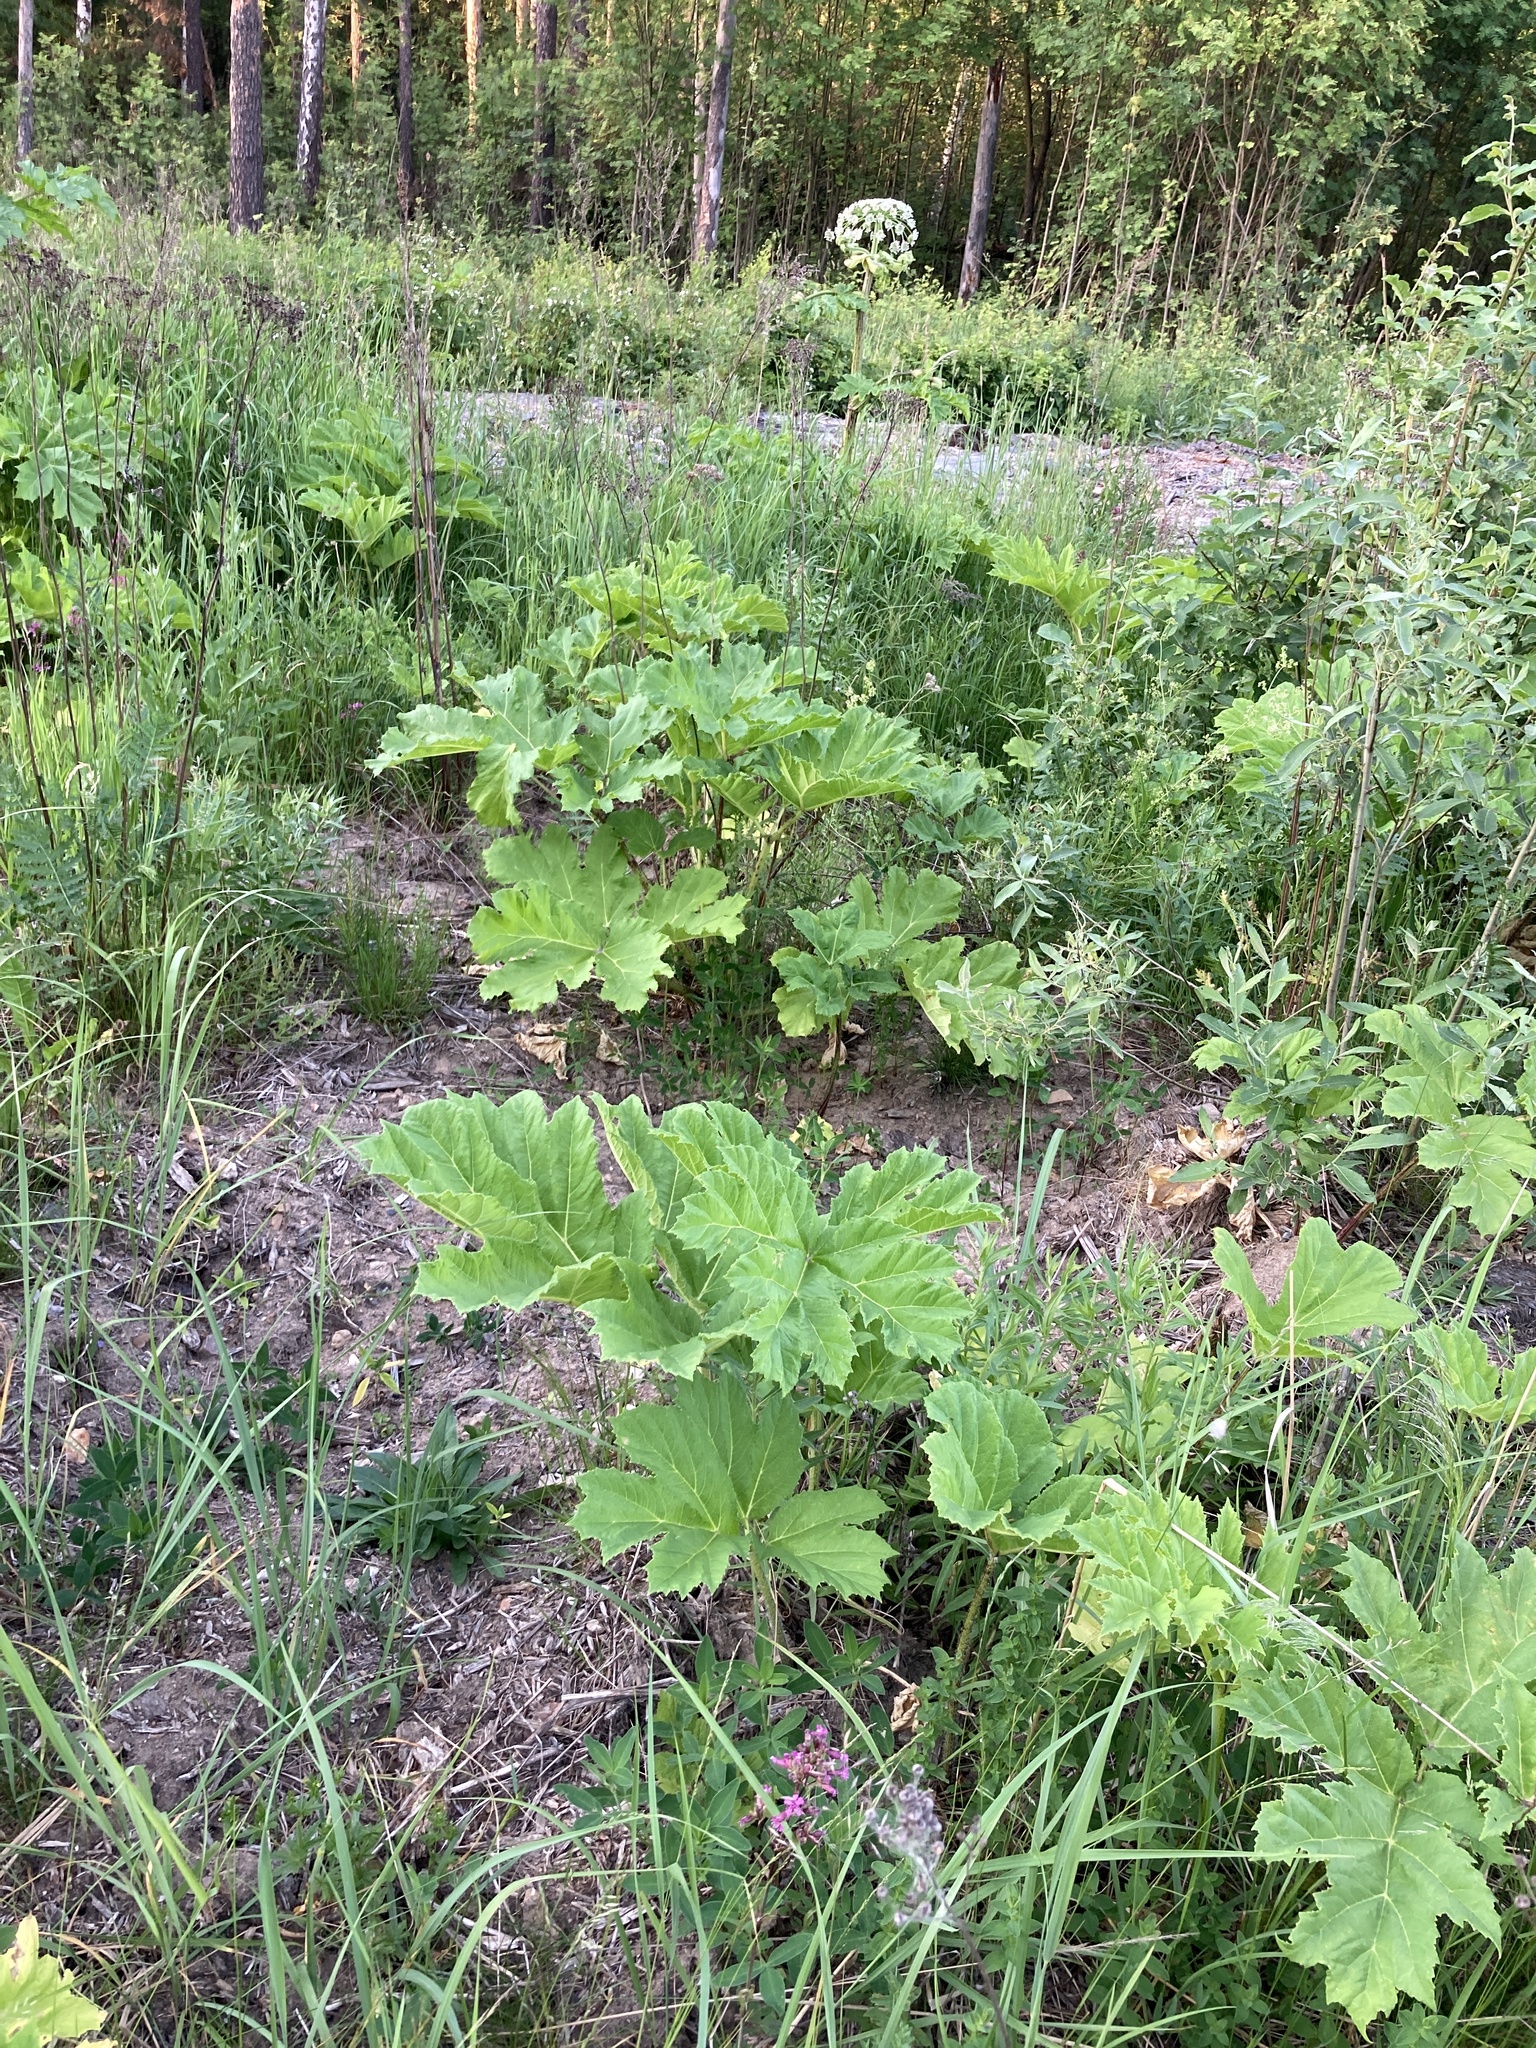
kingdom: Plantae
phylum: Tracheophyta
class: Magnoliopsida
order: Apiales
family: Apiaceae
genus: Heracleum
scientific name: Heracleum sosnowskyi
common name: Sosnowsky's hogweed
